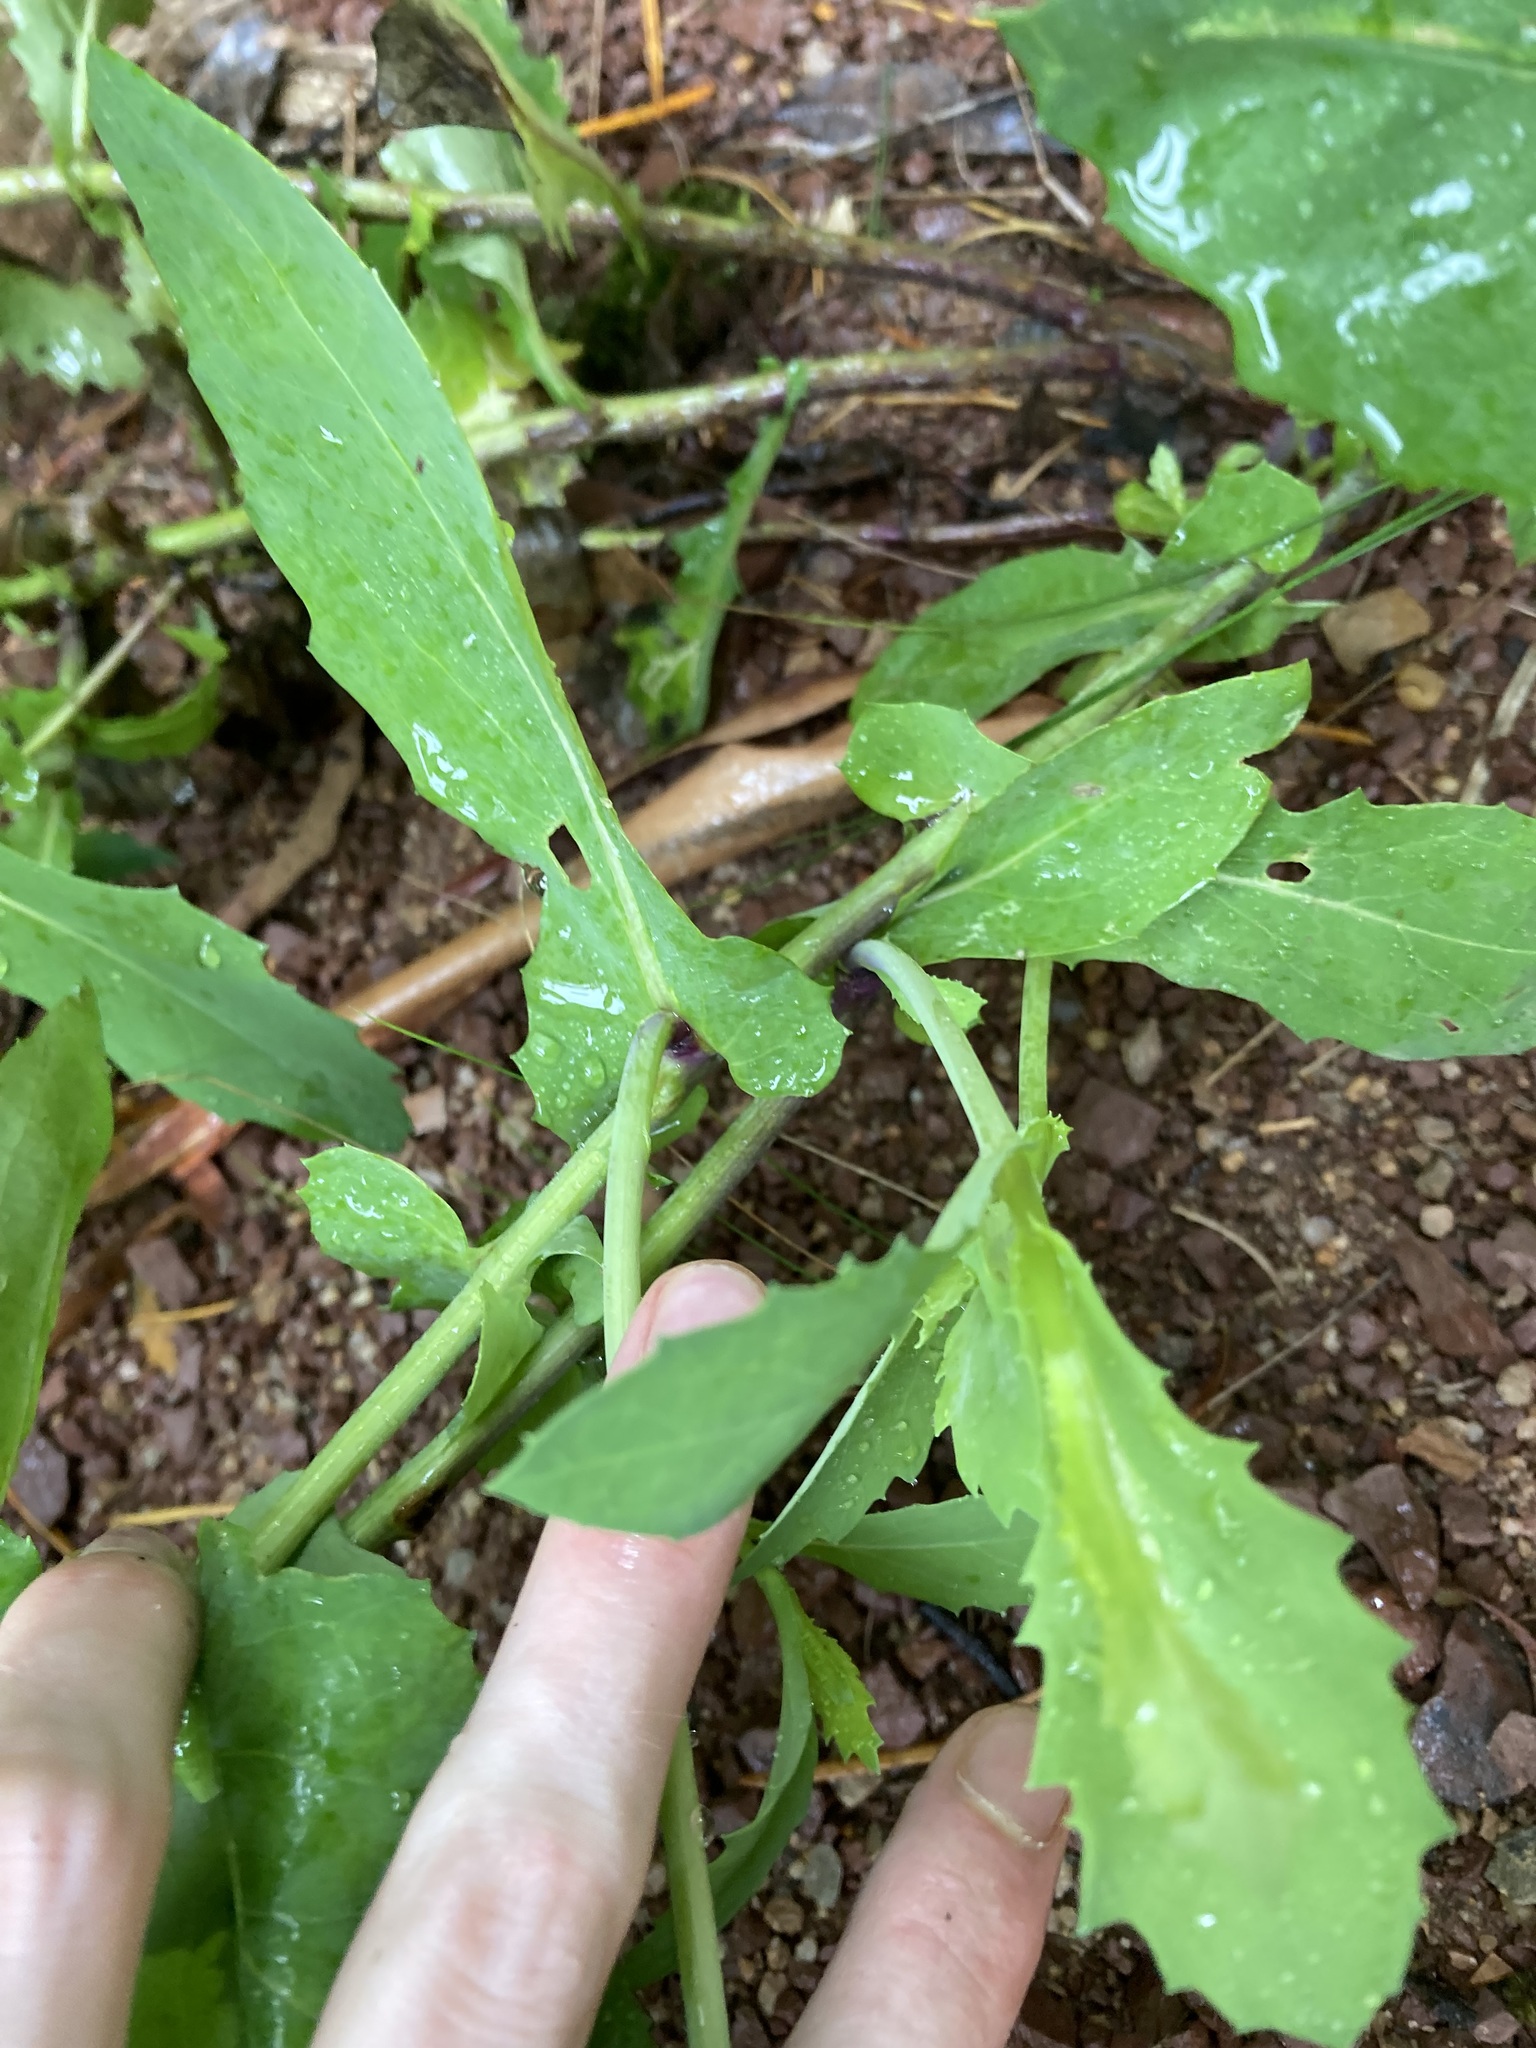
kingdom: Plantae
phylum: Tracheophyta
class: Magnoliopsida
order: Asterales
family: Asteraceae
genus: Lordhowea
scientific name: Lordhowea velleioides
